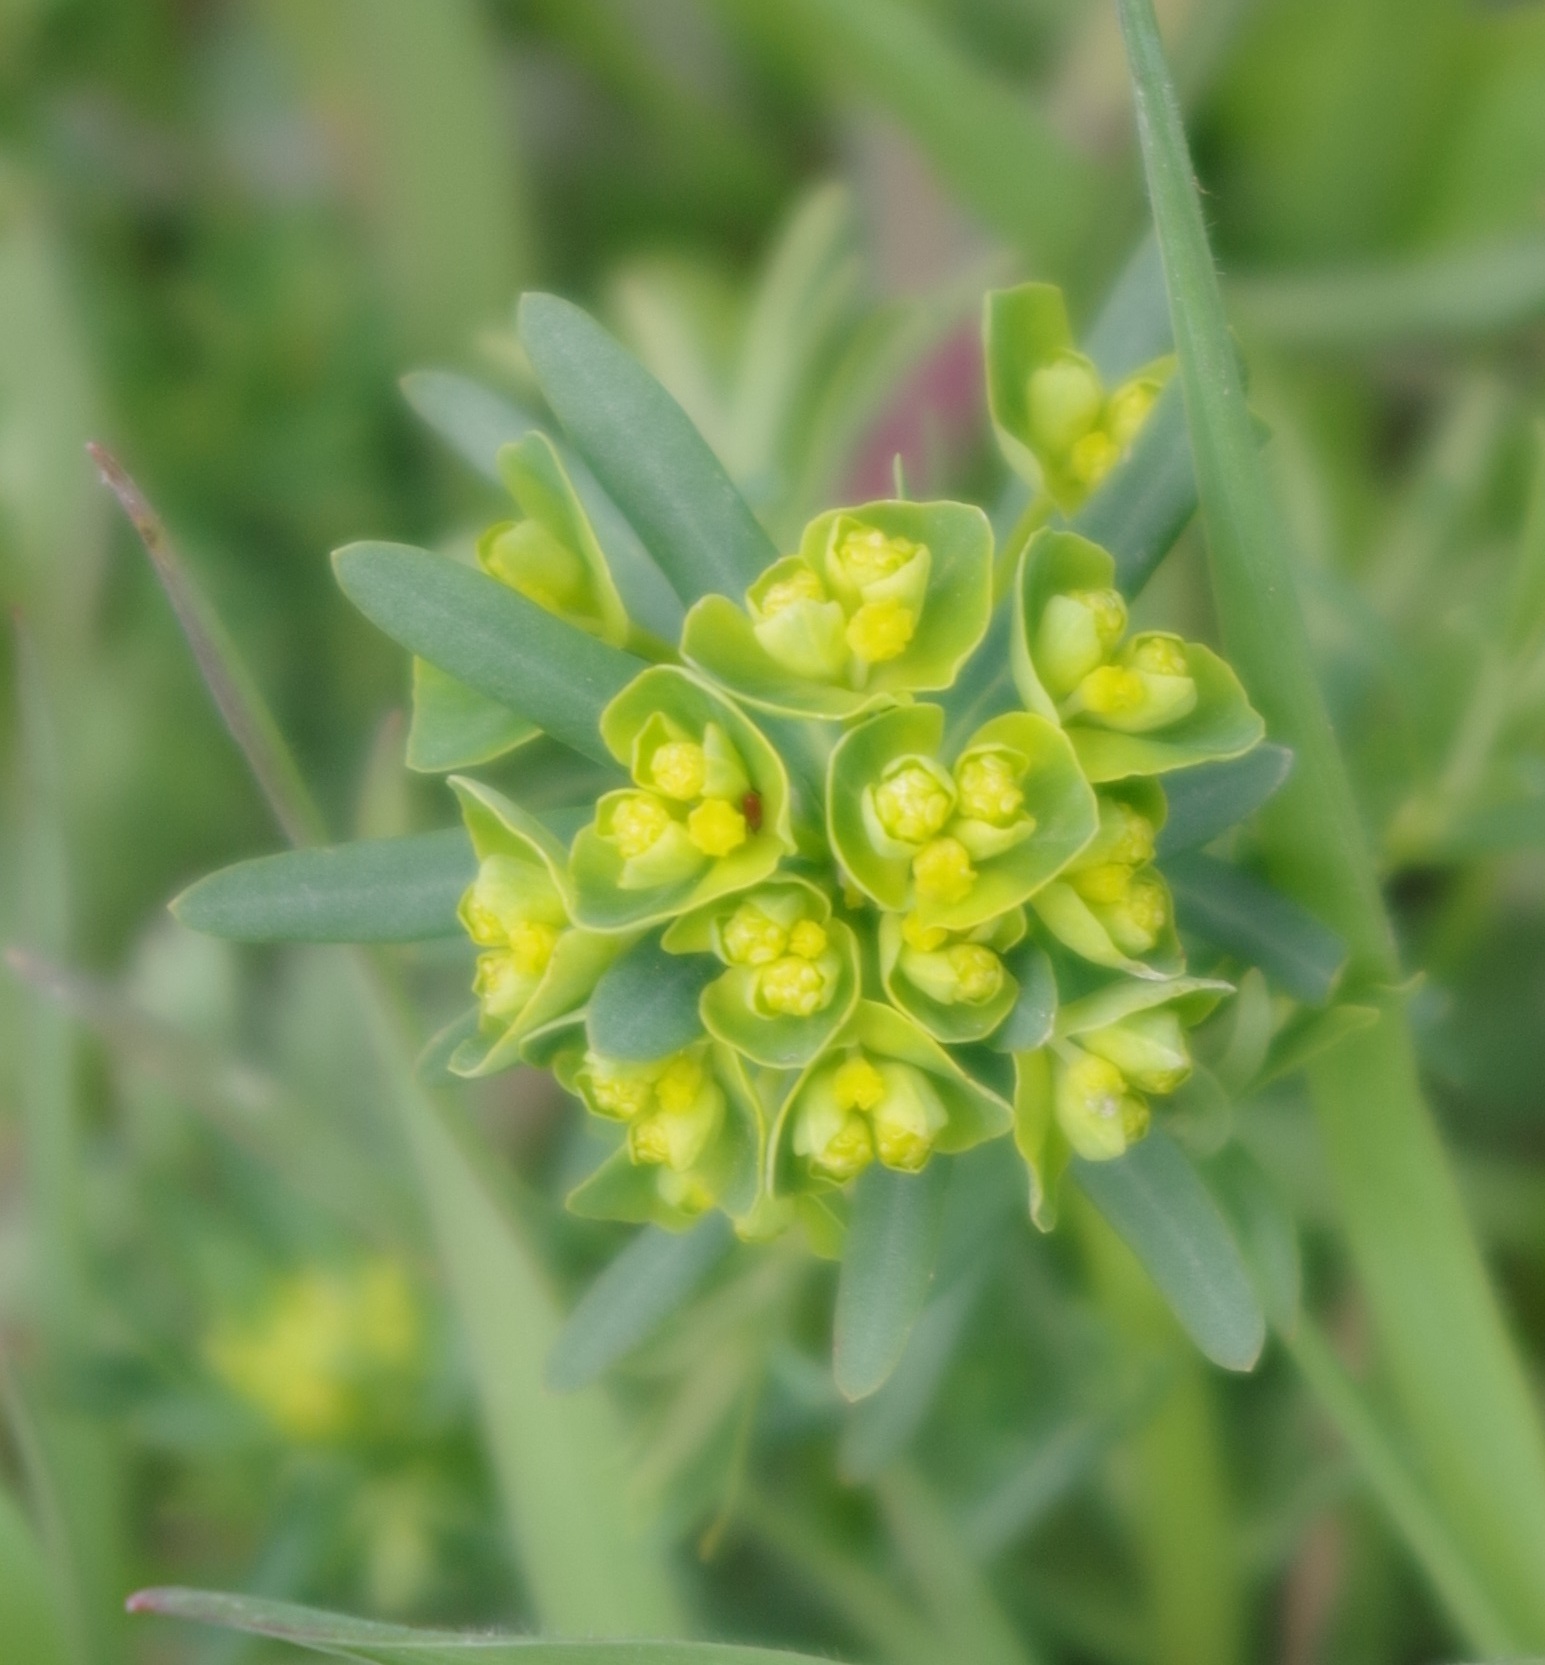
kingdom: Plantae
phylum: Tracheophyta
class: Magnoliopsida
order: Malpighiales
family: Euphorbiaceae
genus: Euphorbia
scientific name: Euphorbia cyparissias
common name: Cypress spurge
